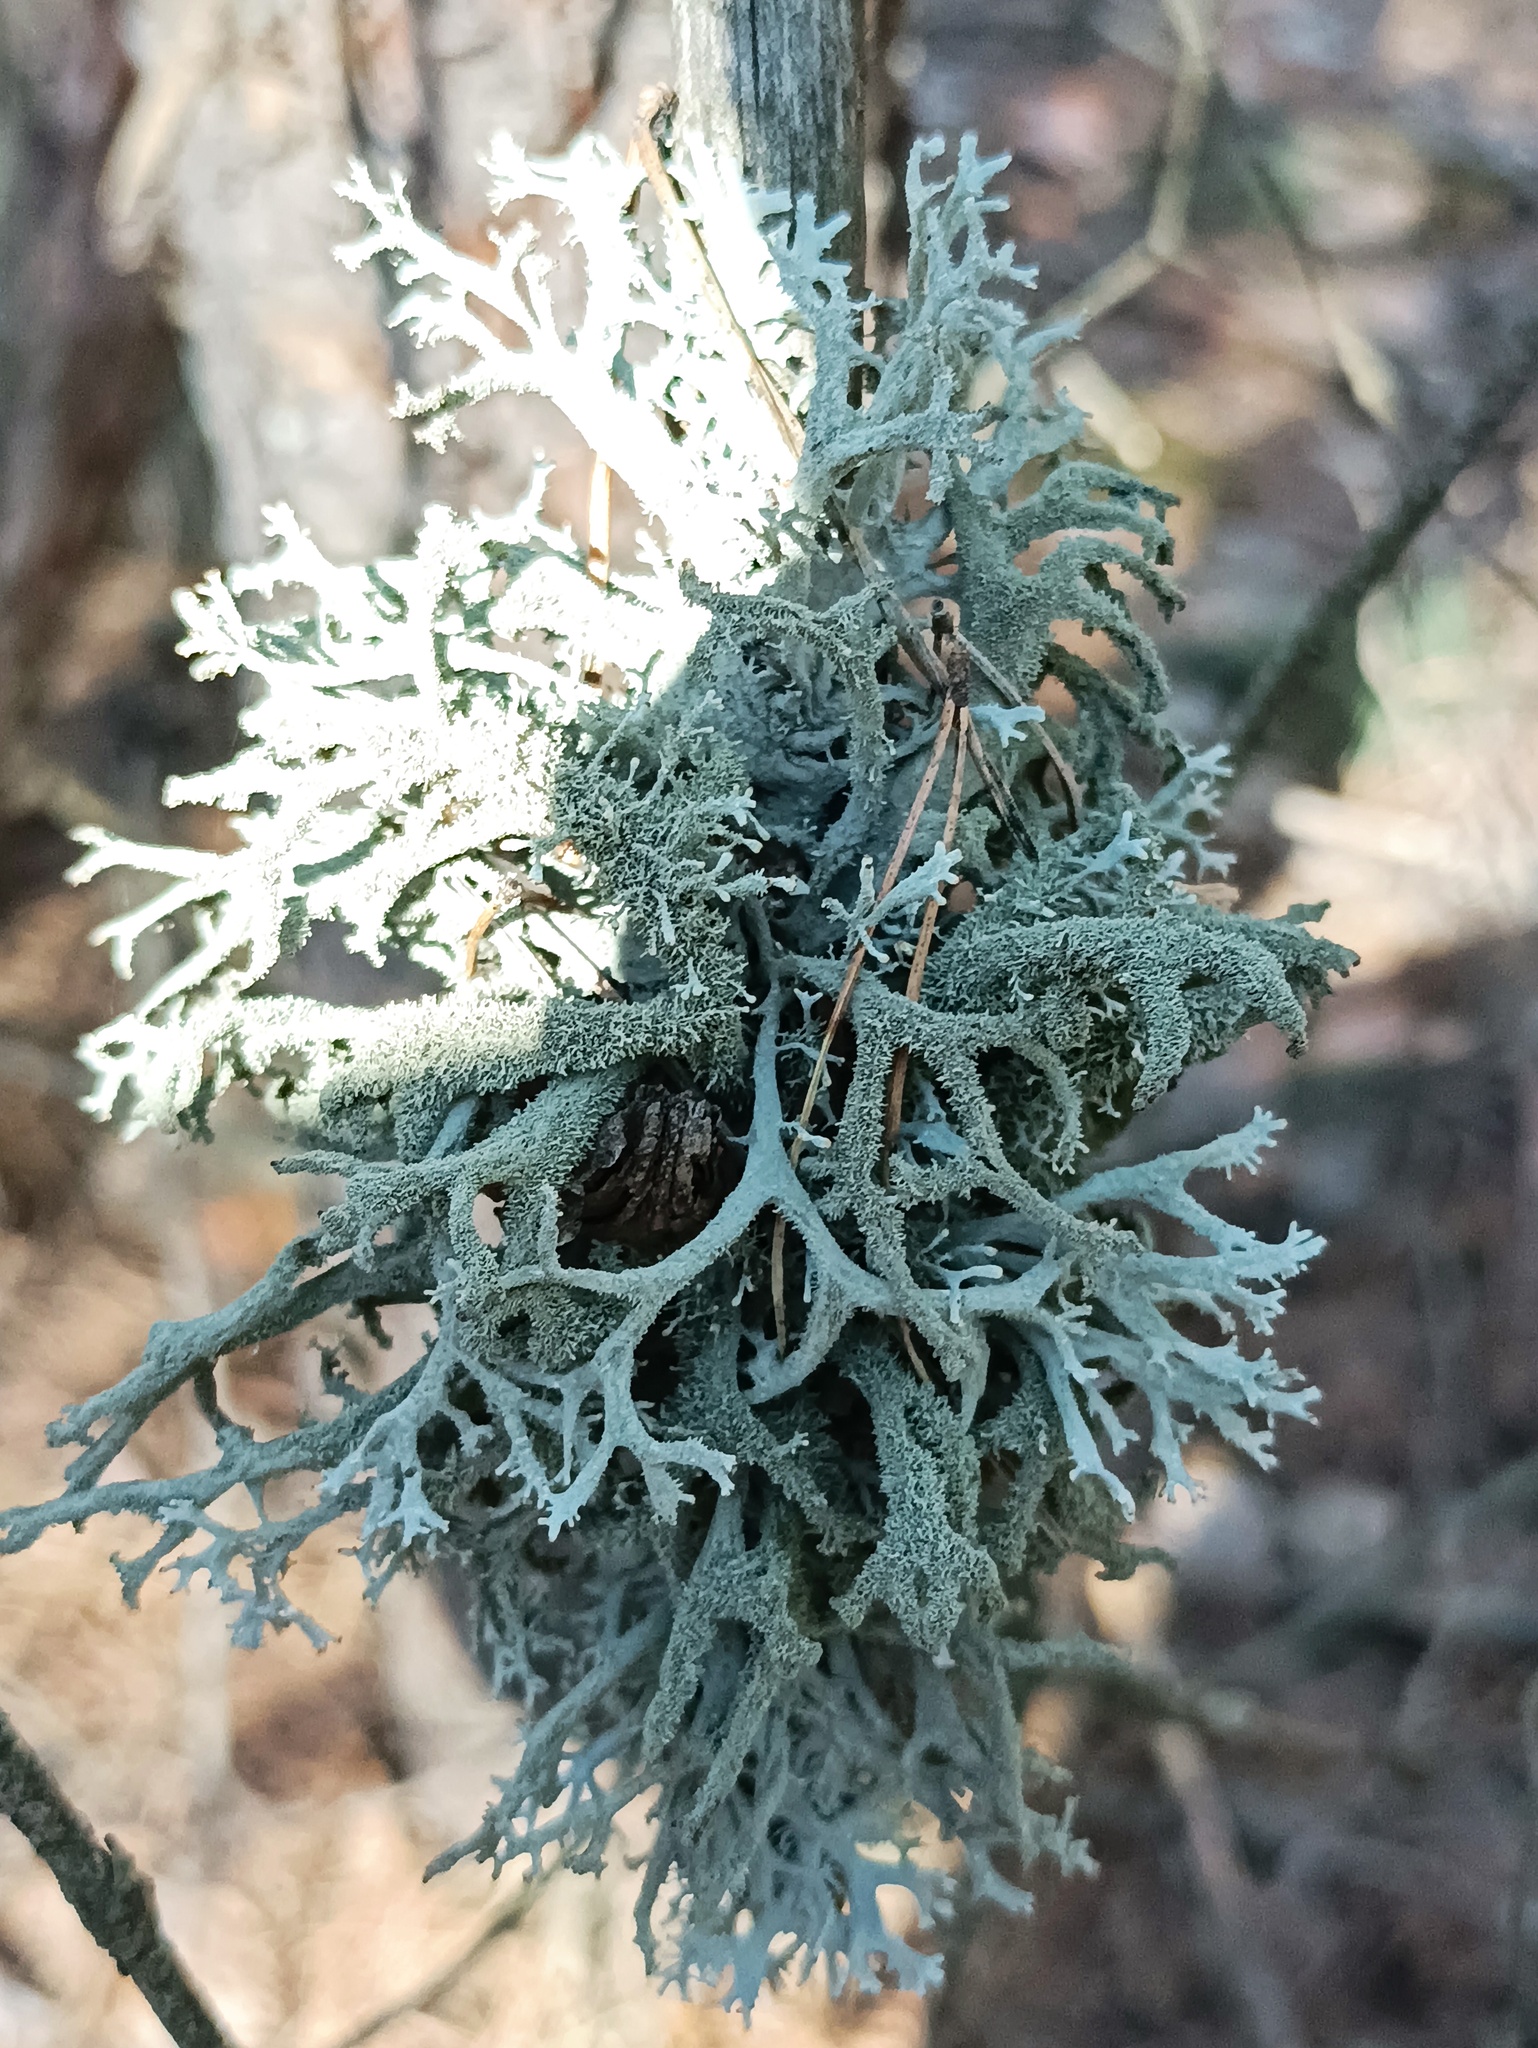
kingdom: Fungi
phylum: Ascomycota
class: Lecanoromycetes
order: Lecanorales
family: Parmeliaceae
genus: Pseudevernia
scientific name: Pseudevernia furfuracea
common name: Tree moss
